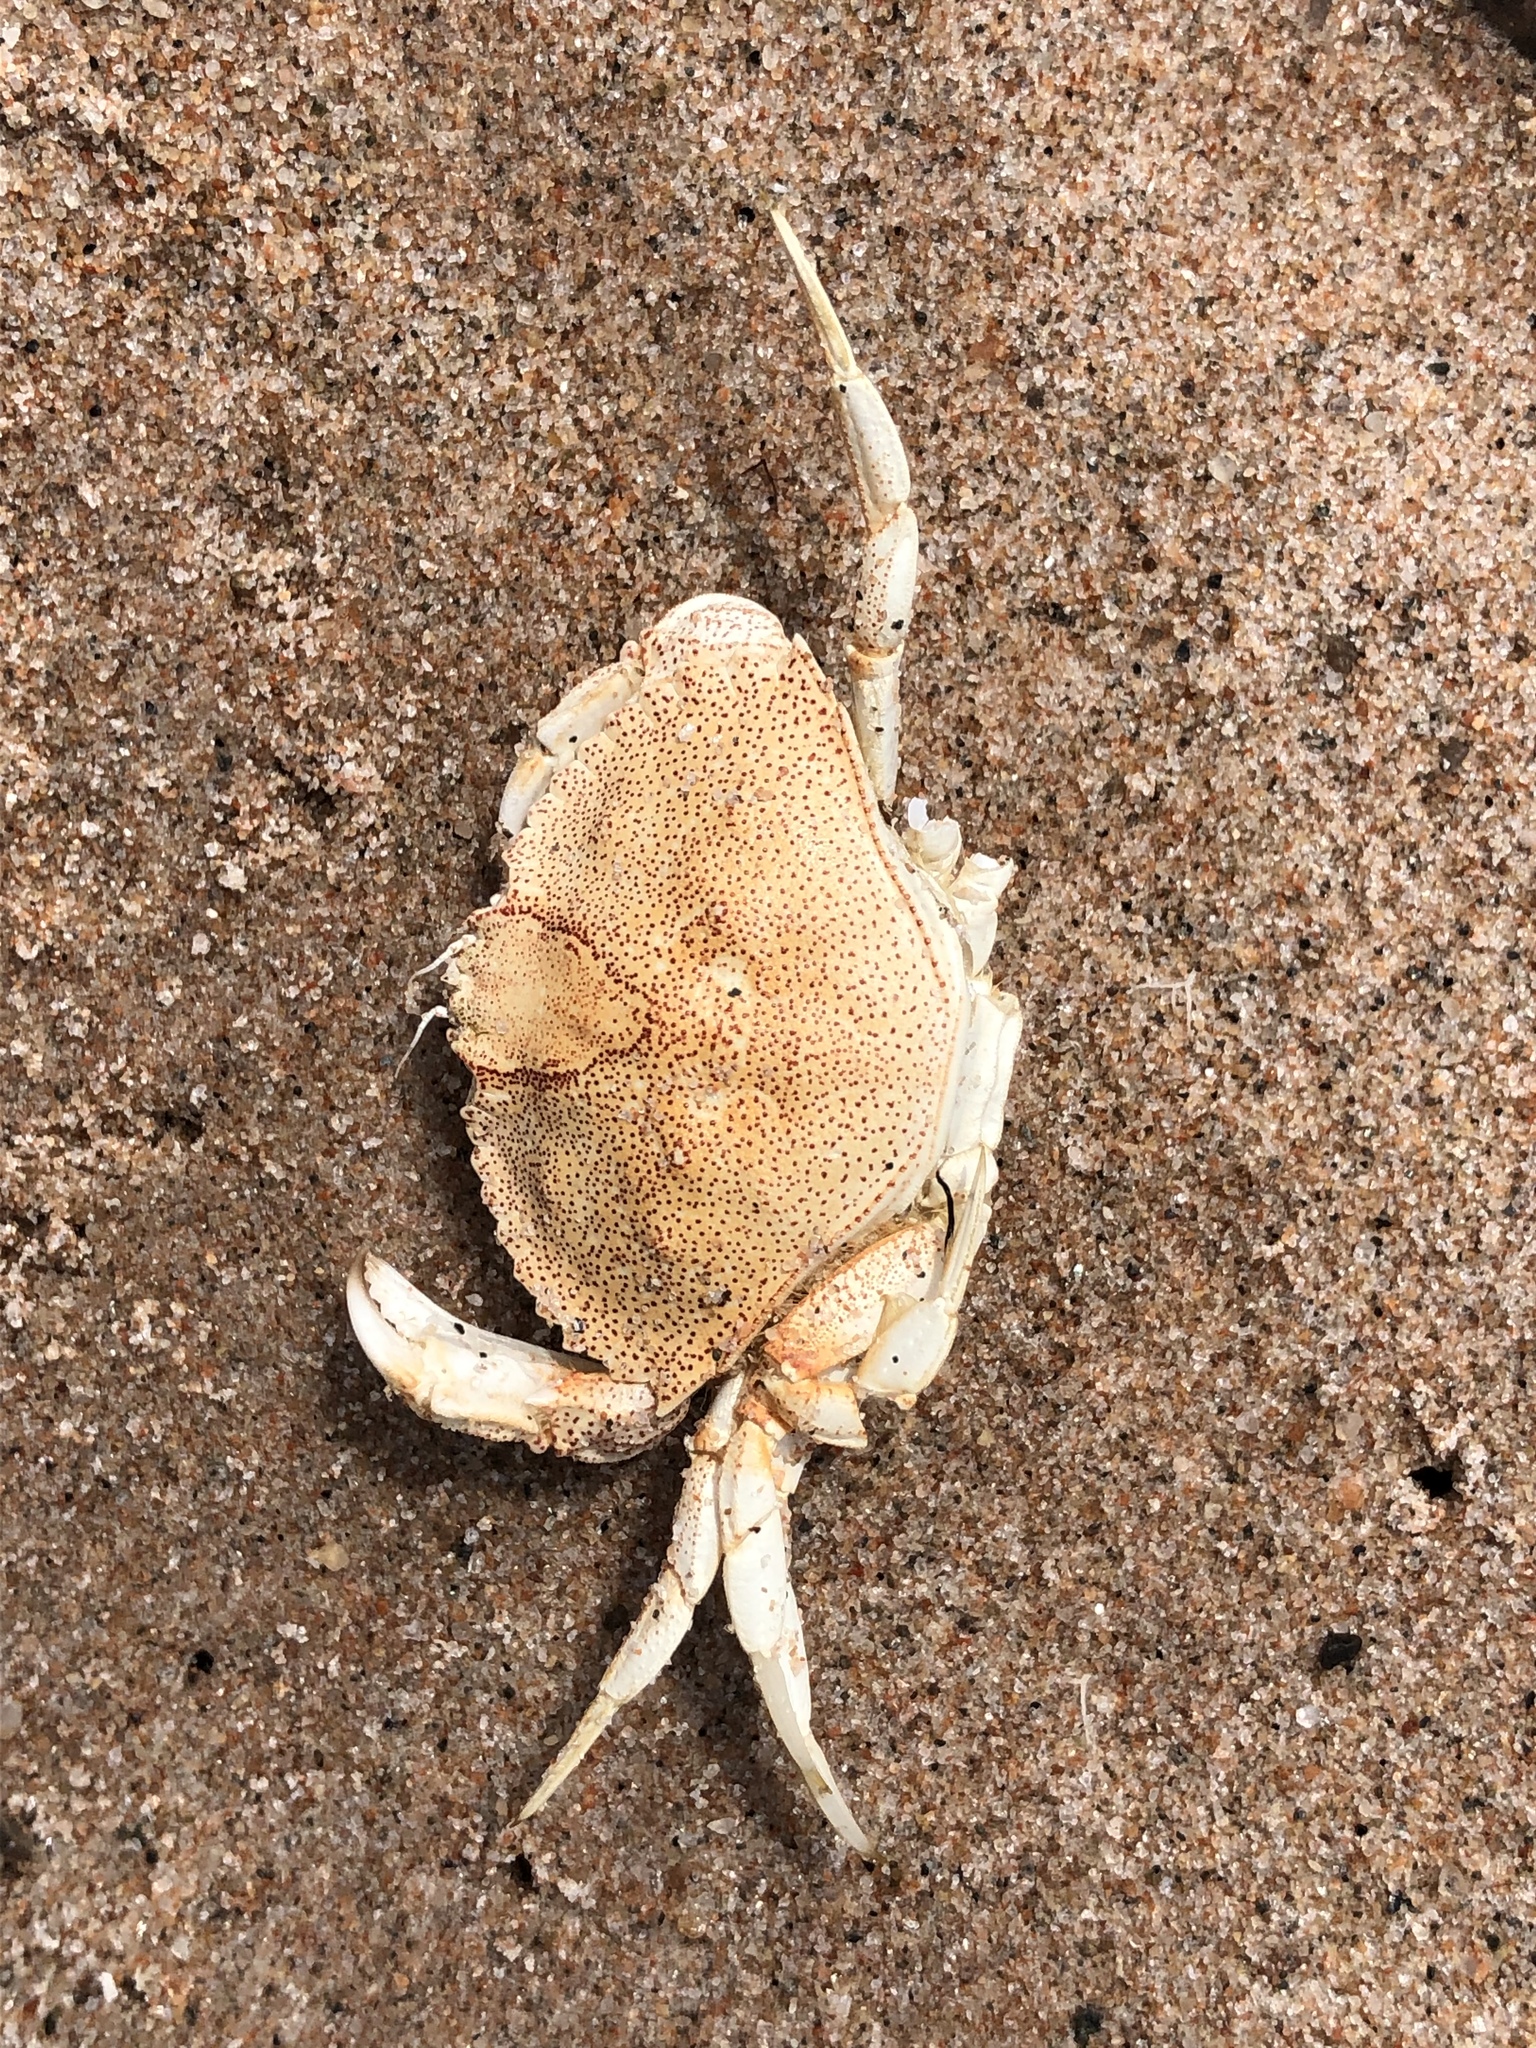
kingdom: Animalia
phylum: Arthropoda
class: Malacostraca
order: Decapoda
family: Cancridae
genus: Cancer
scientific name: Cancer irroratus
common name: Atlantic rock crab
